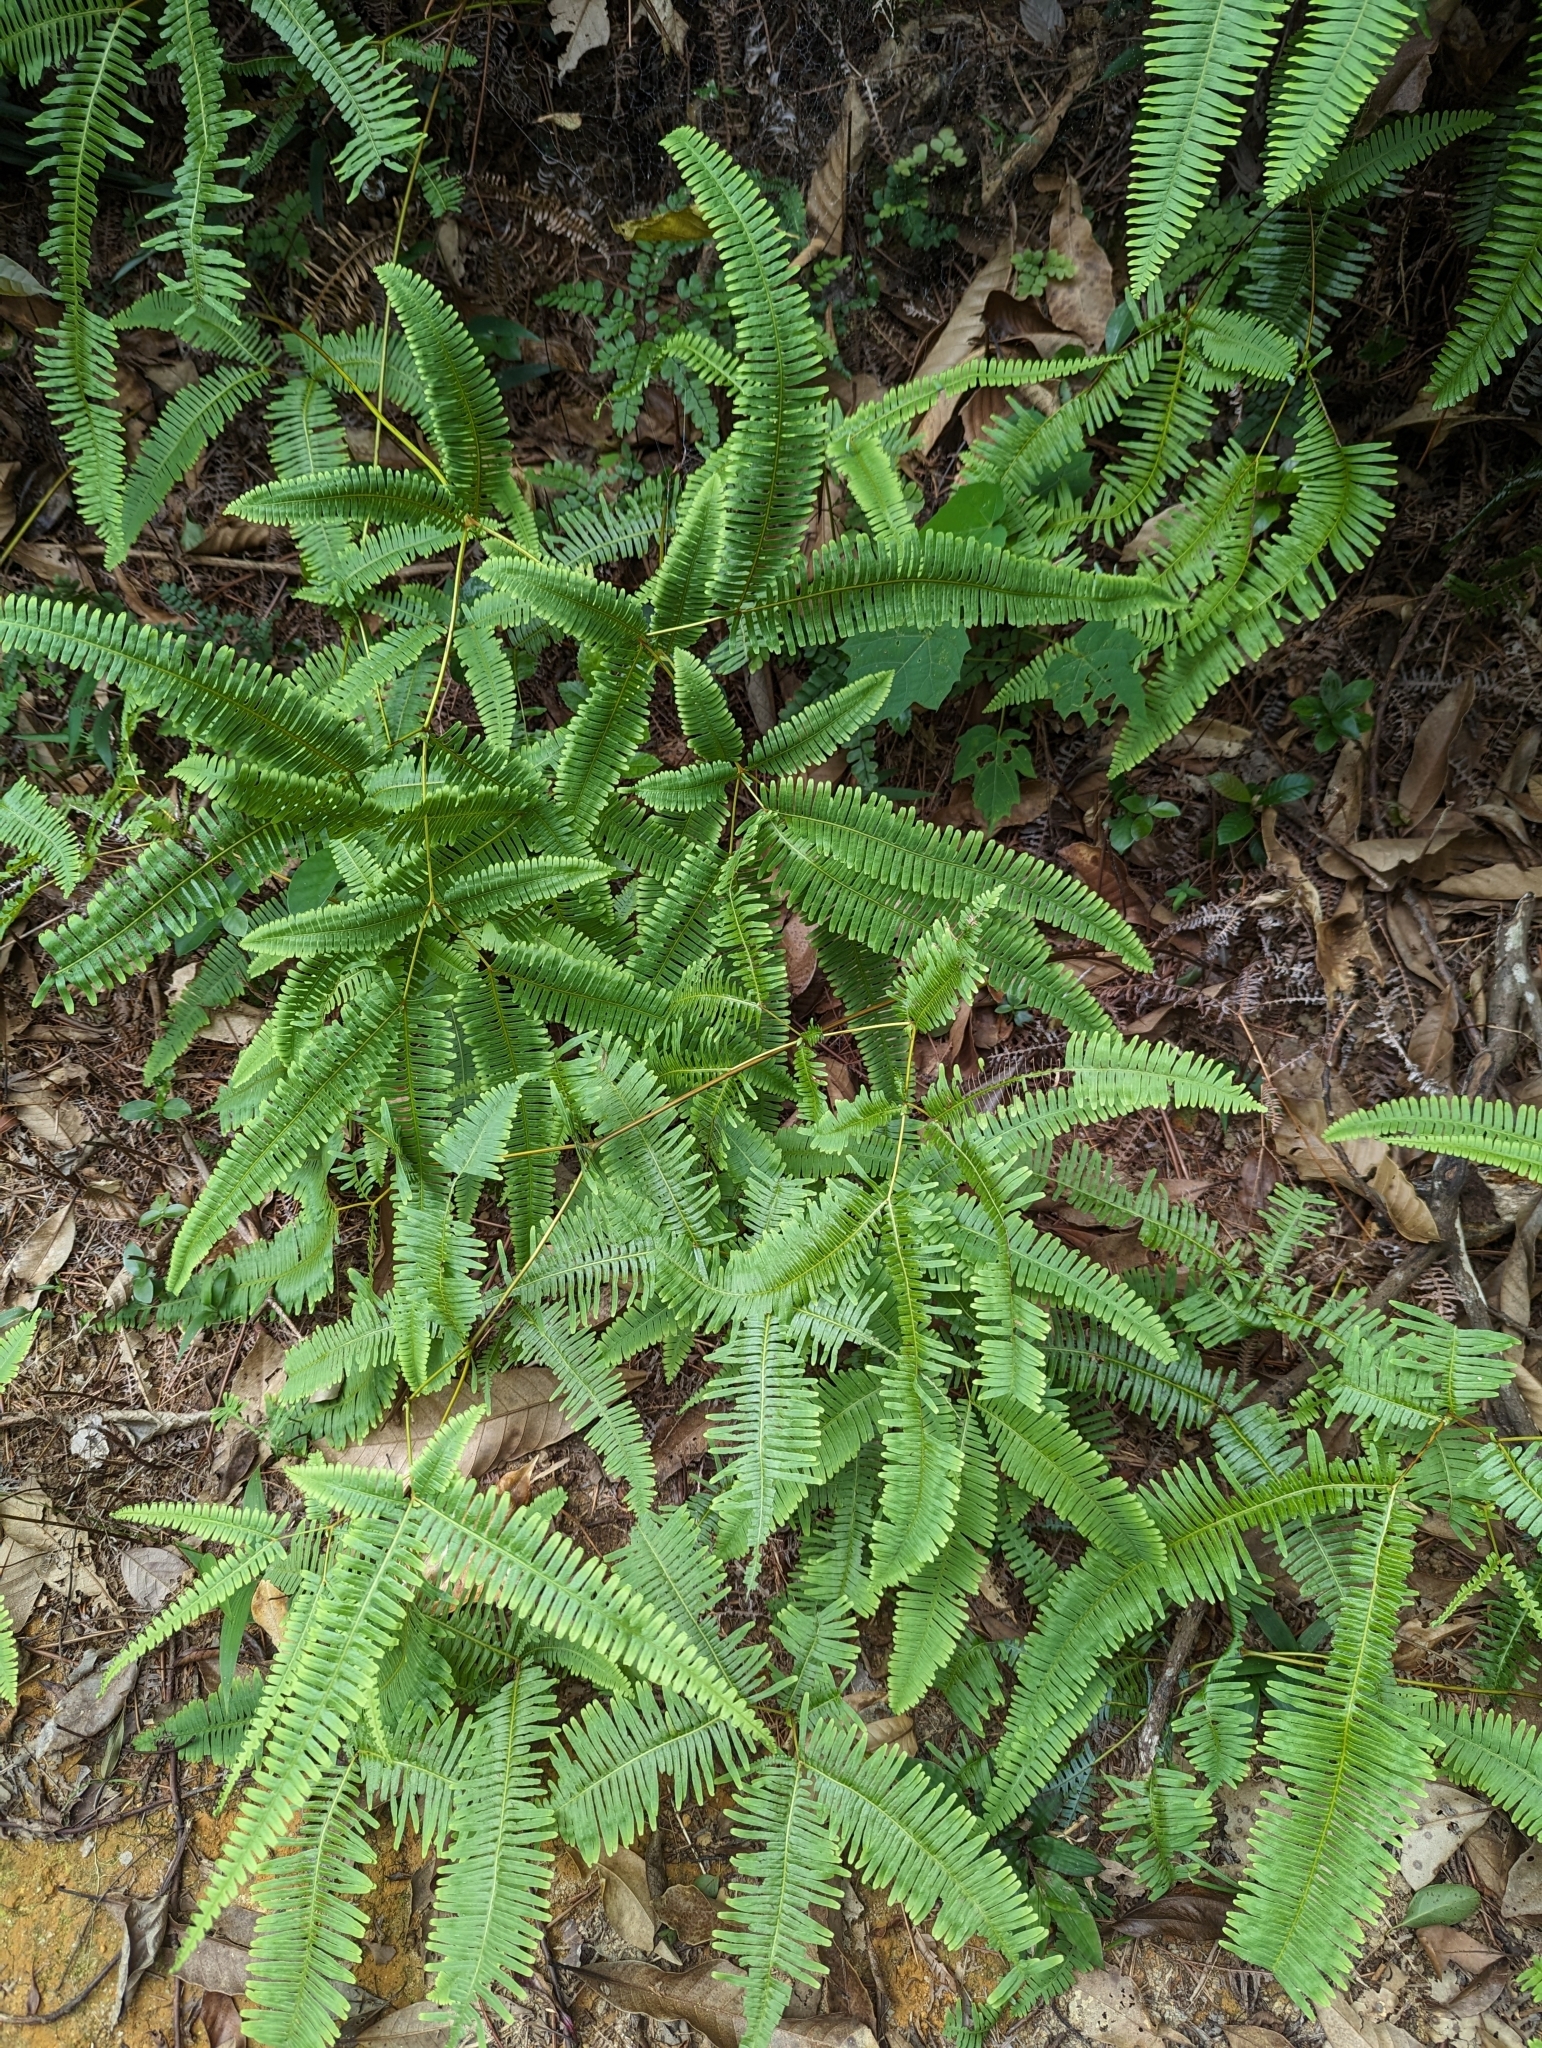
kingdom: Plantae
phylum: Tracheophyta
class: Polypodiopsida
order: Gleicheniales
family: Gleicheniaceae
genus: Dicranopteris
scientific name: Dicranopteris pedata
